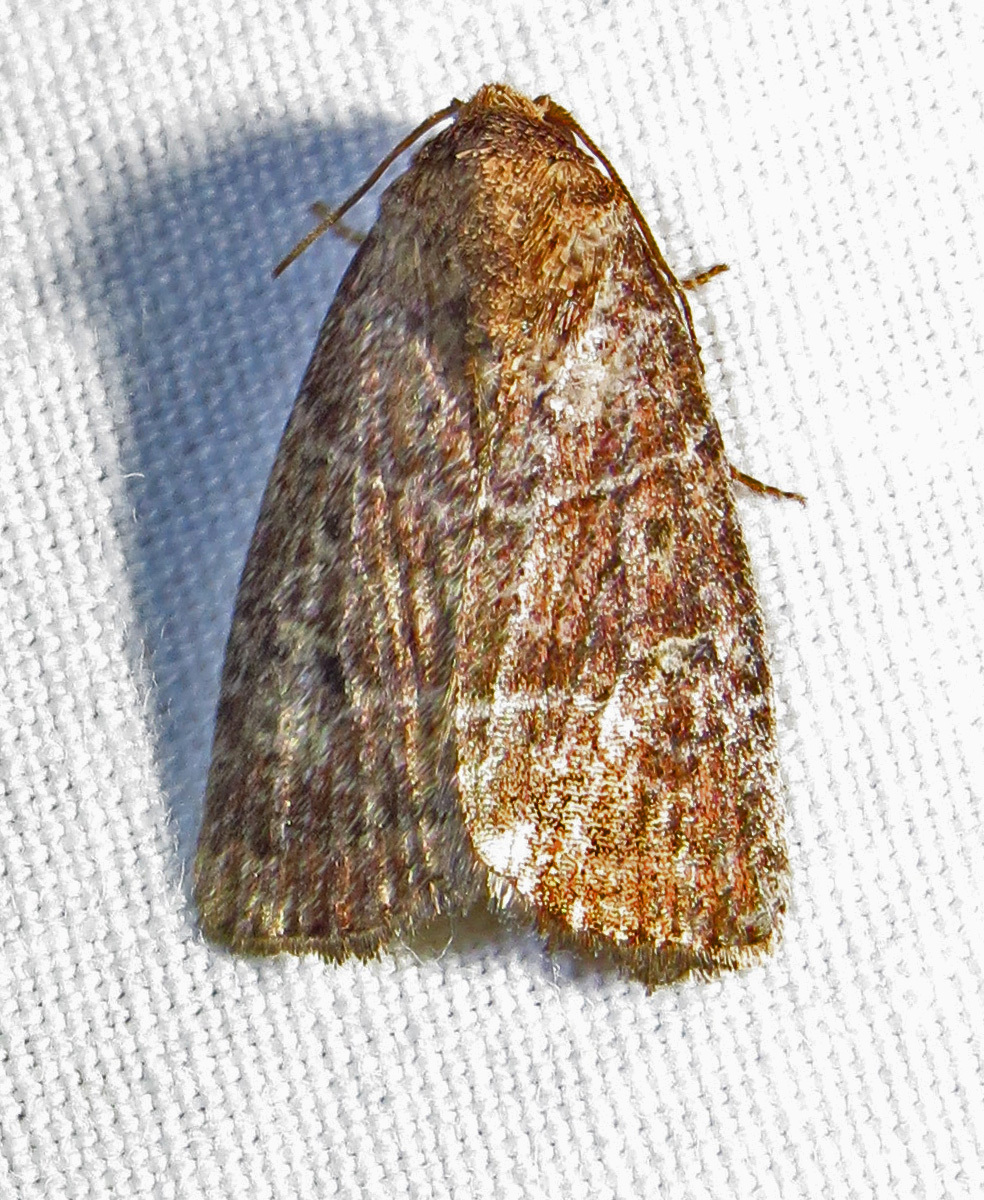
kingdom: Animalia
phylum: Arthropoda
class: Insecta
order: Lepidoptera
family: Noctuidae
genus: Elaphria
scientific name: Elaphria grata
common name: Grateful midget moth
